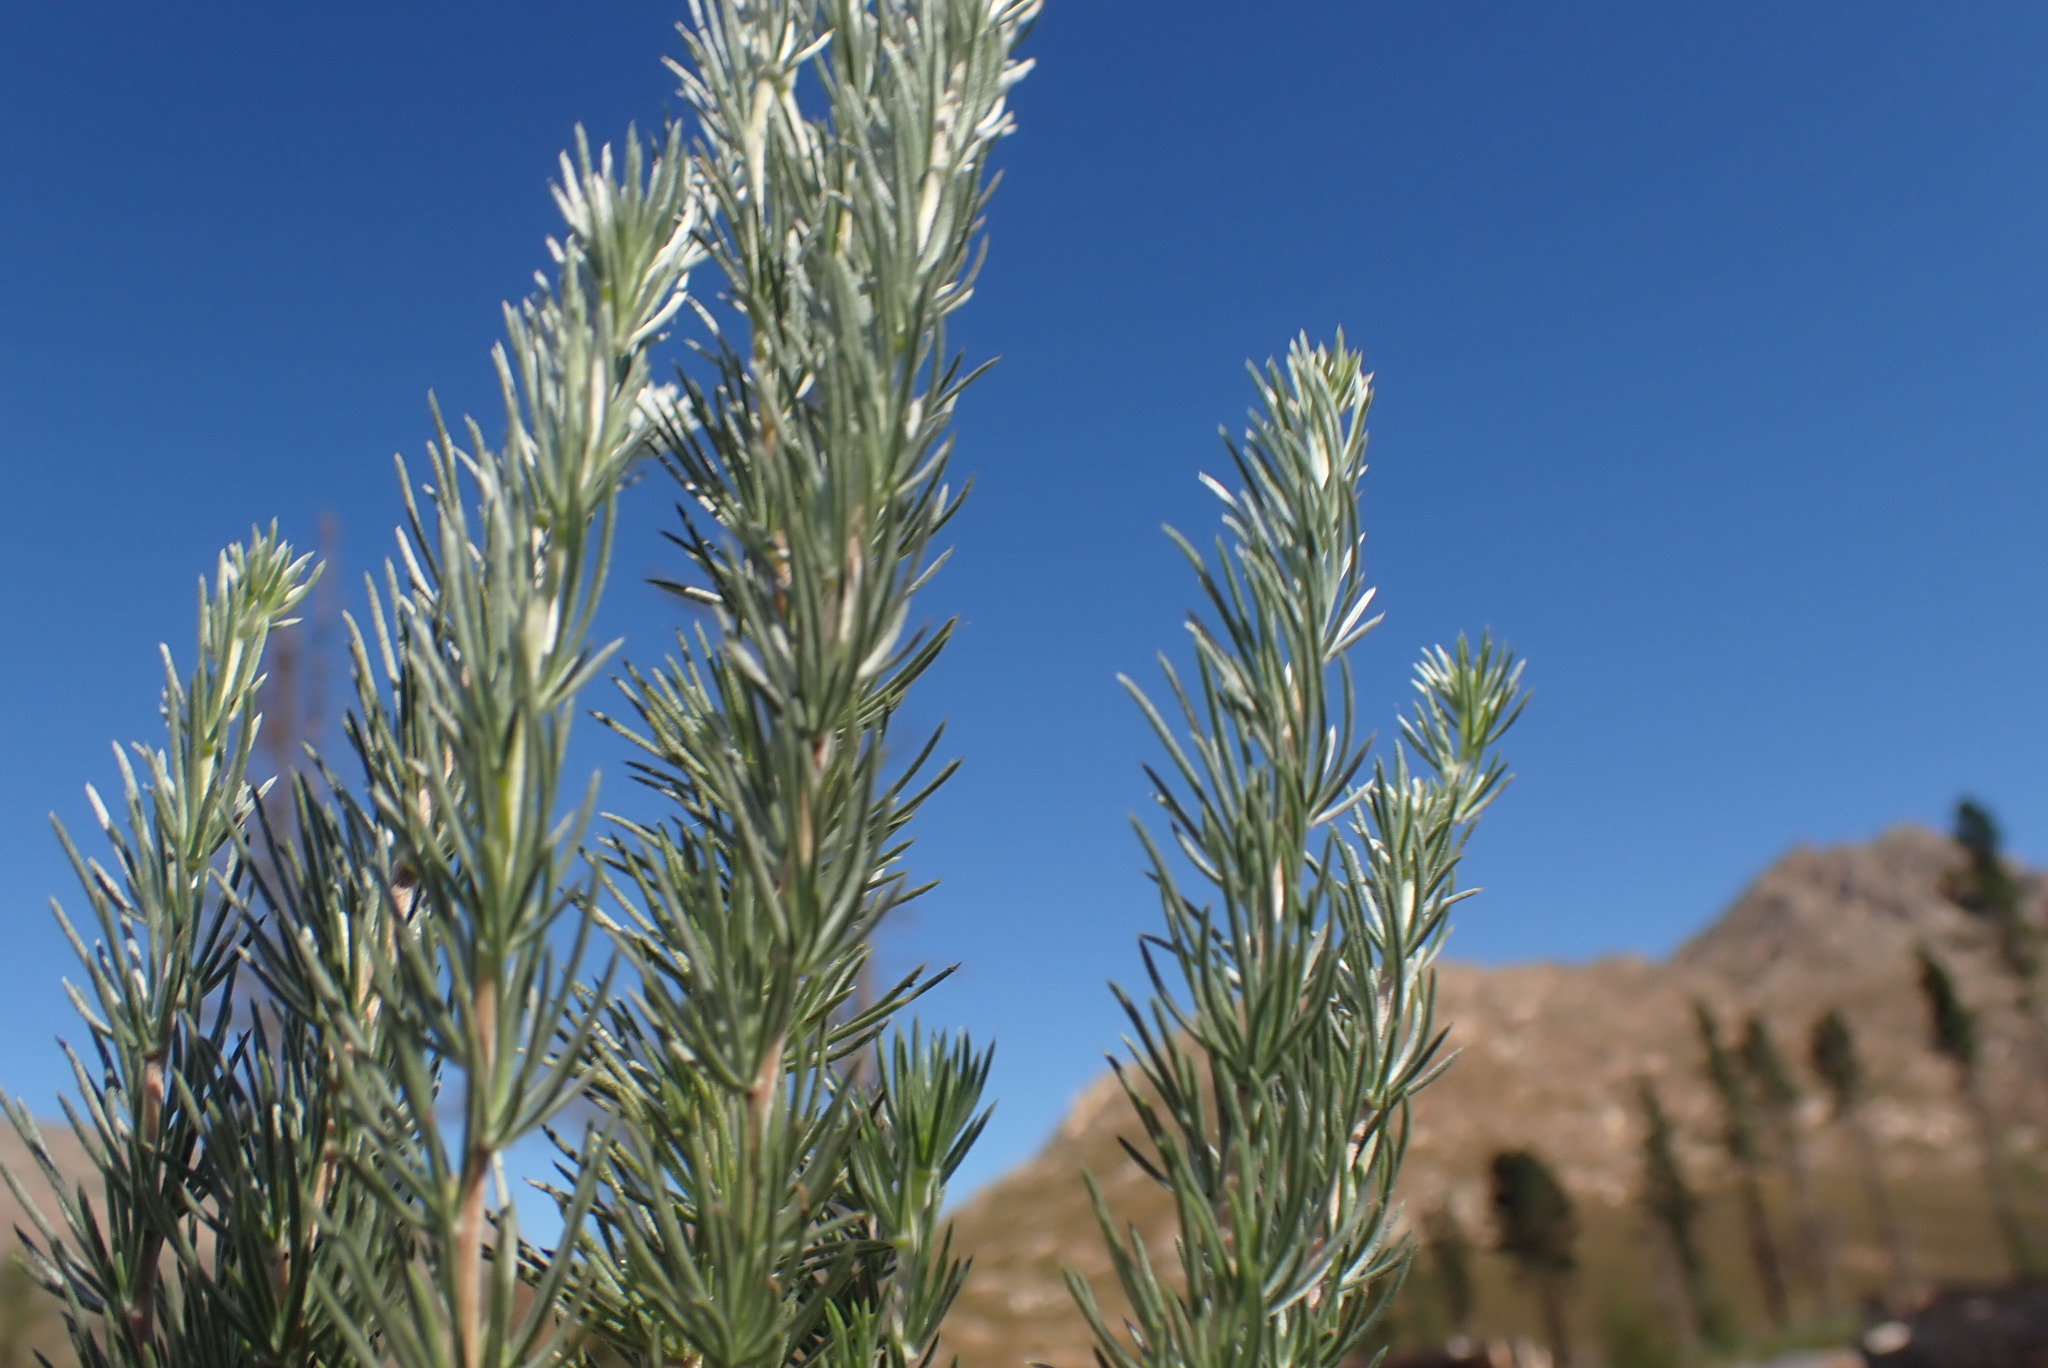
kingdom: Plantae
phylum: Tracheophyta
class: Magnoliopsida
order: Fabales
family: Fabaceae
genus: Aspalathus
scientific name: Aspalathus glabrescens
